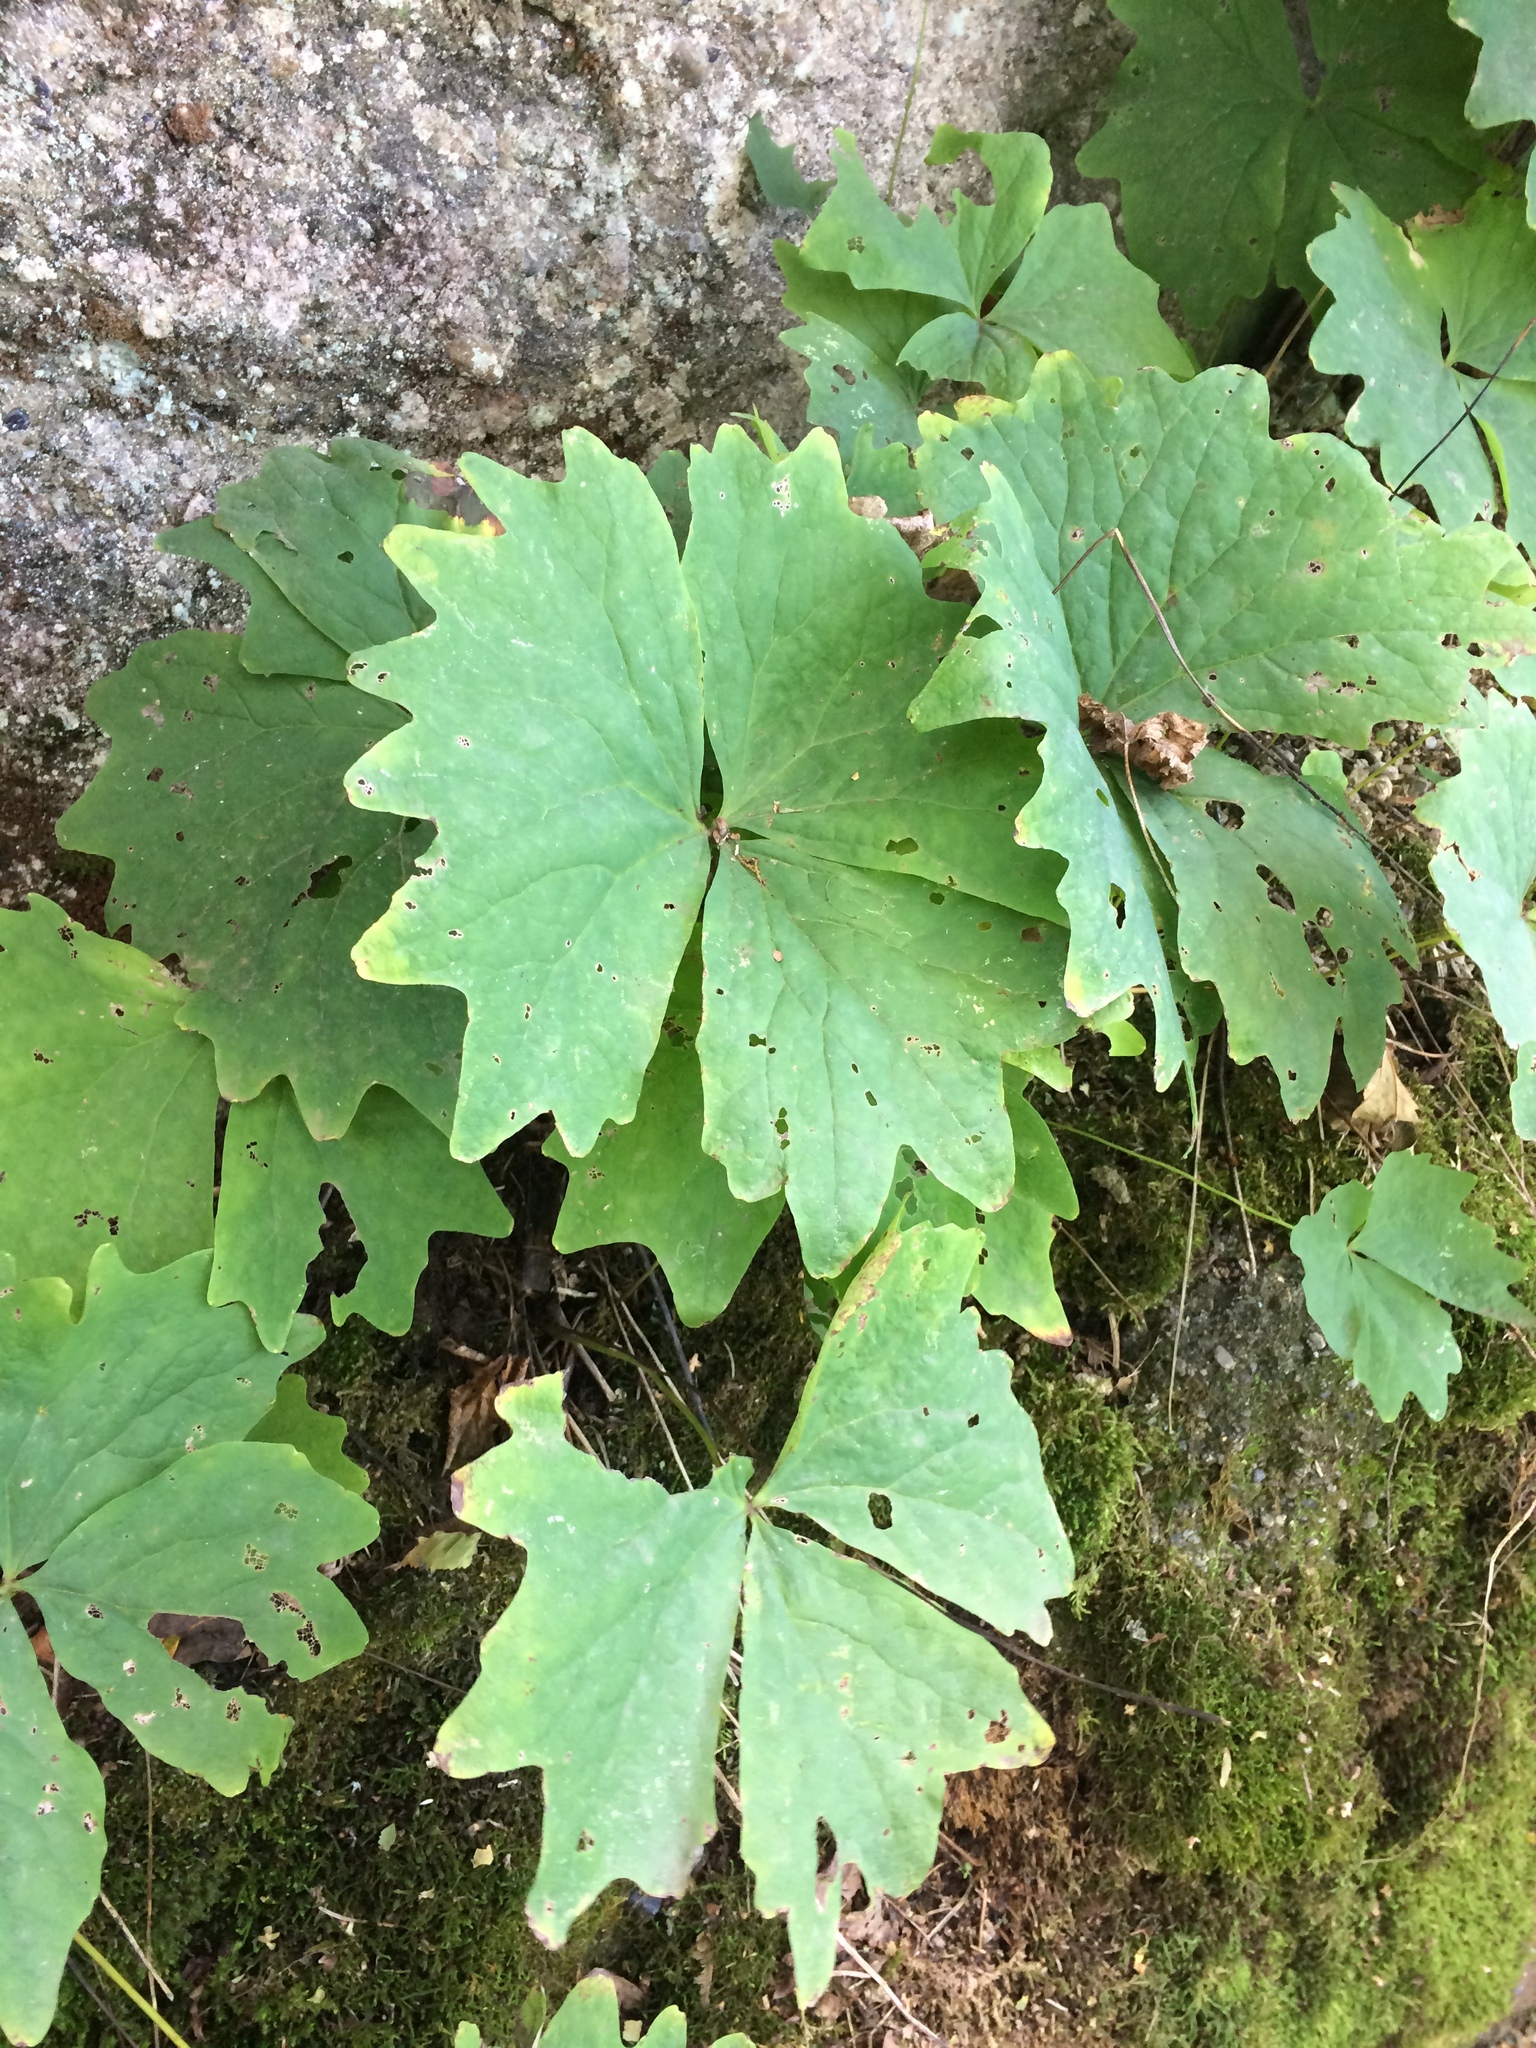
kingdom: Plantae
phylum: Tracheophyta
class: Magnoliopsida
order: Ranunculales
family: Berberidaceae
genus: Achlys
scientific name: Achlys triphylla
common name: Vanilla-leaf
